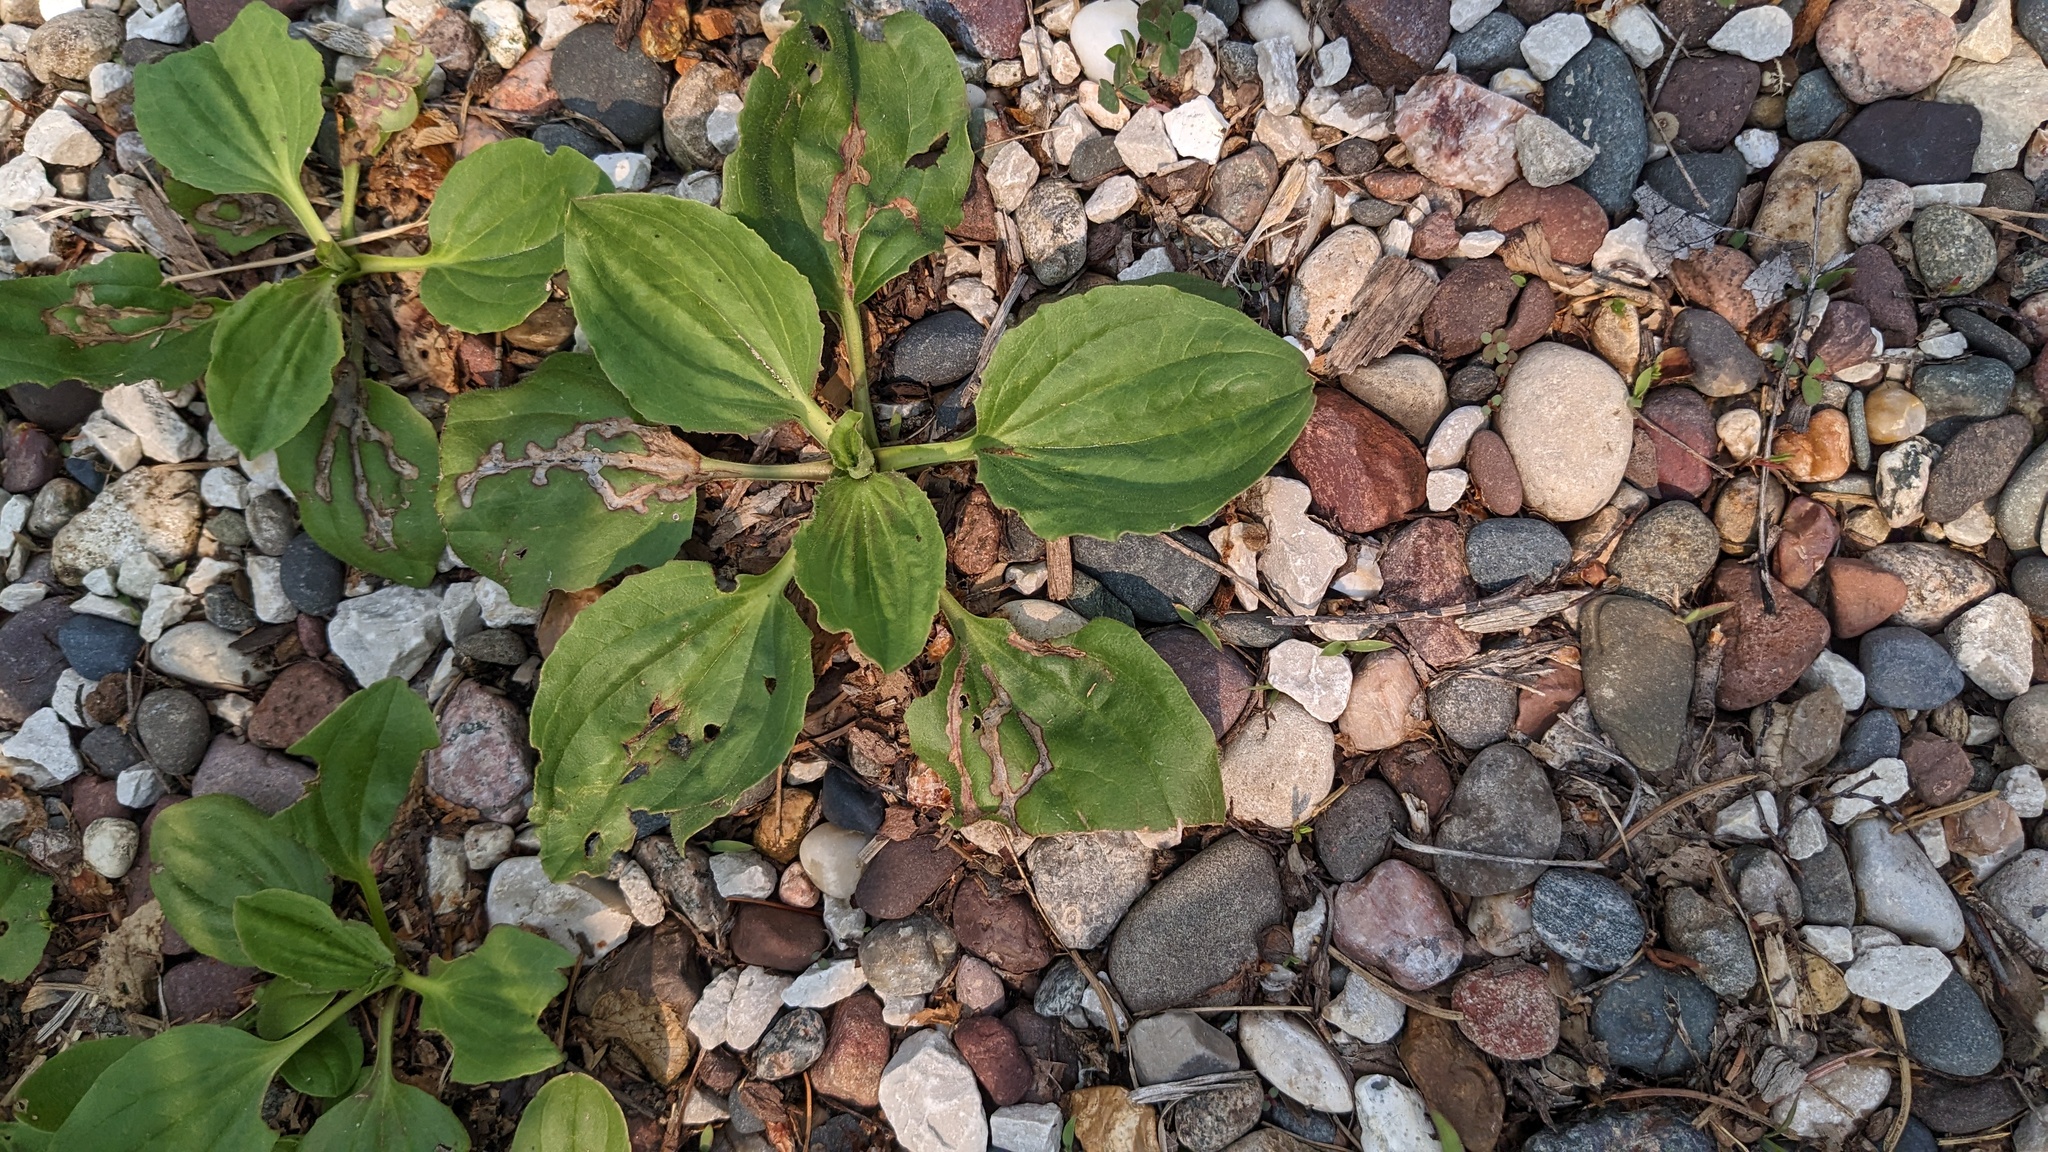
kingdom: Plantae
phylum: Tracheophyta
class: Magnoliopsida
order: Lamiales
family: Plantaginaceae
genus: Plantago
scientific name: Plantago major
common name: Common plantain
